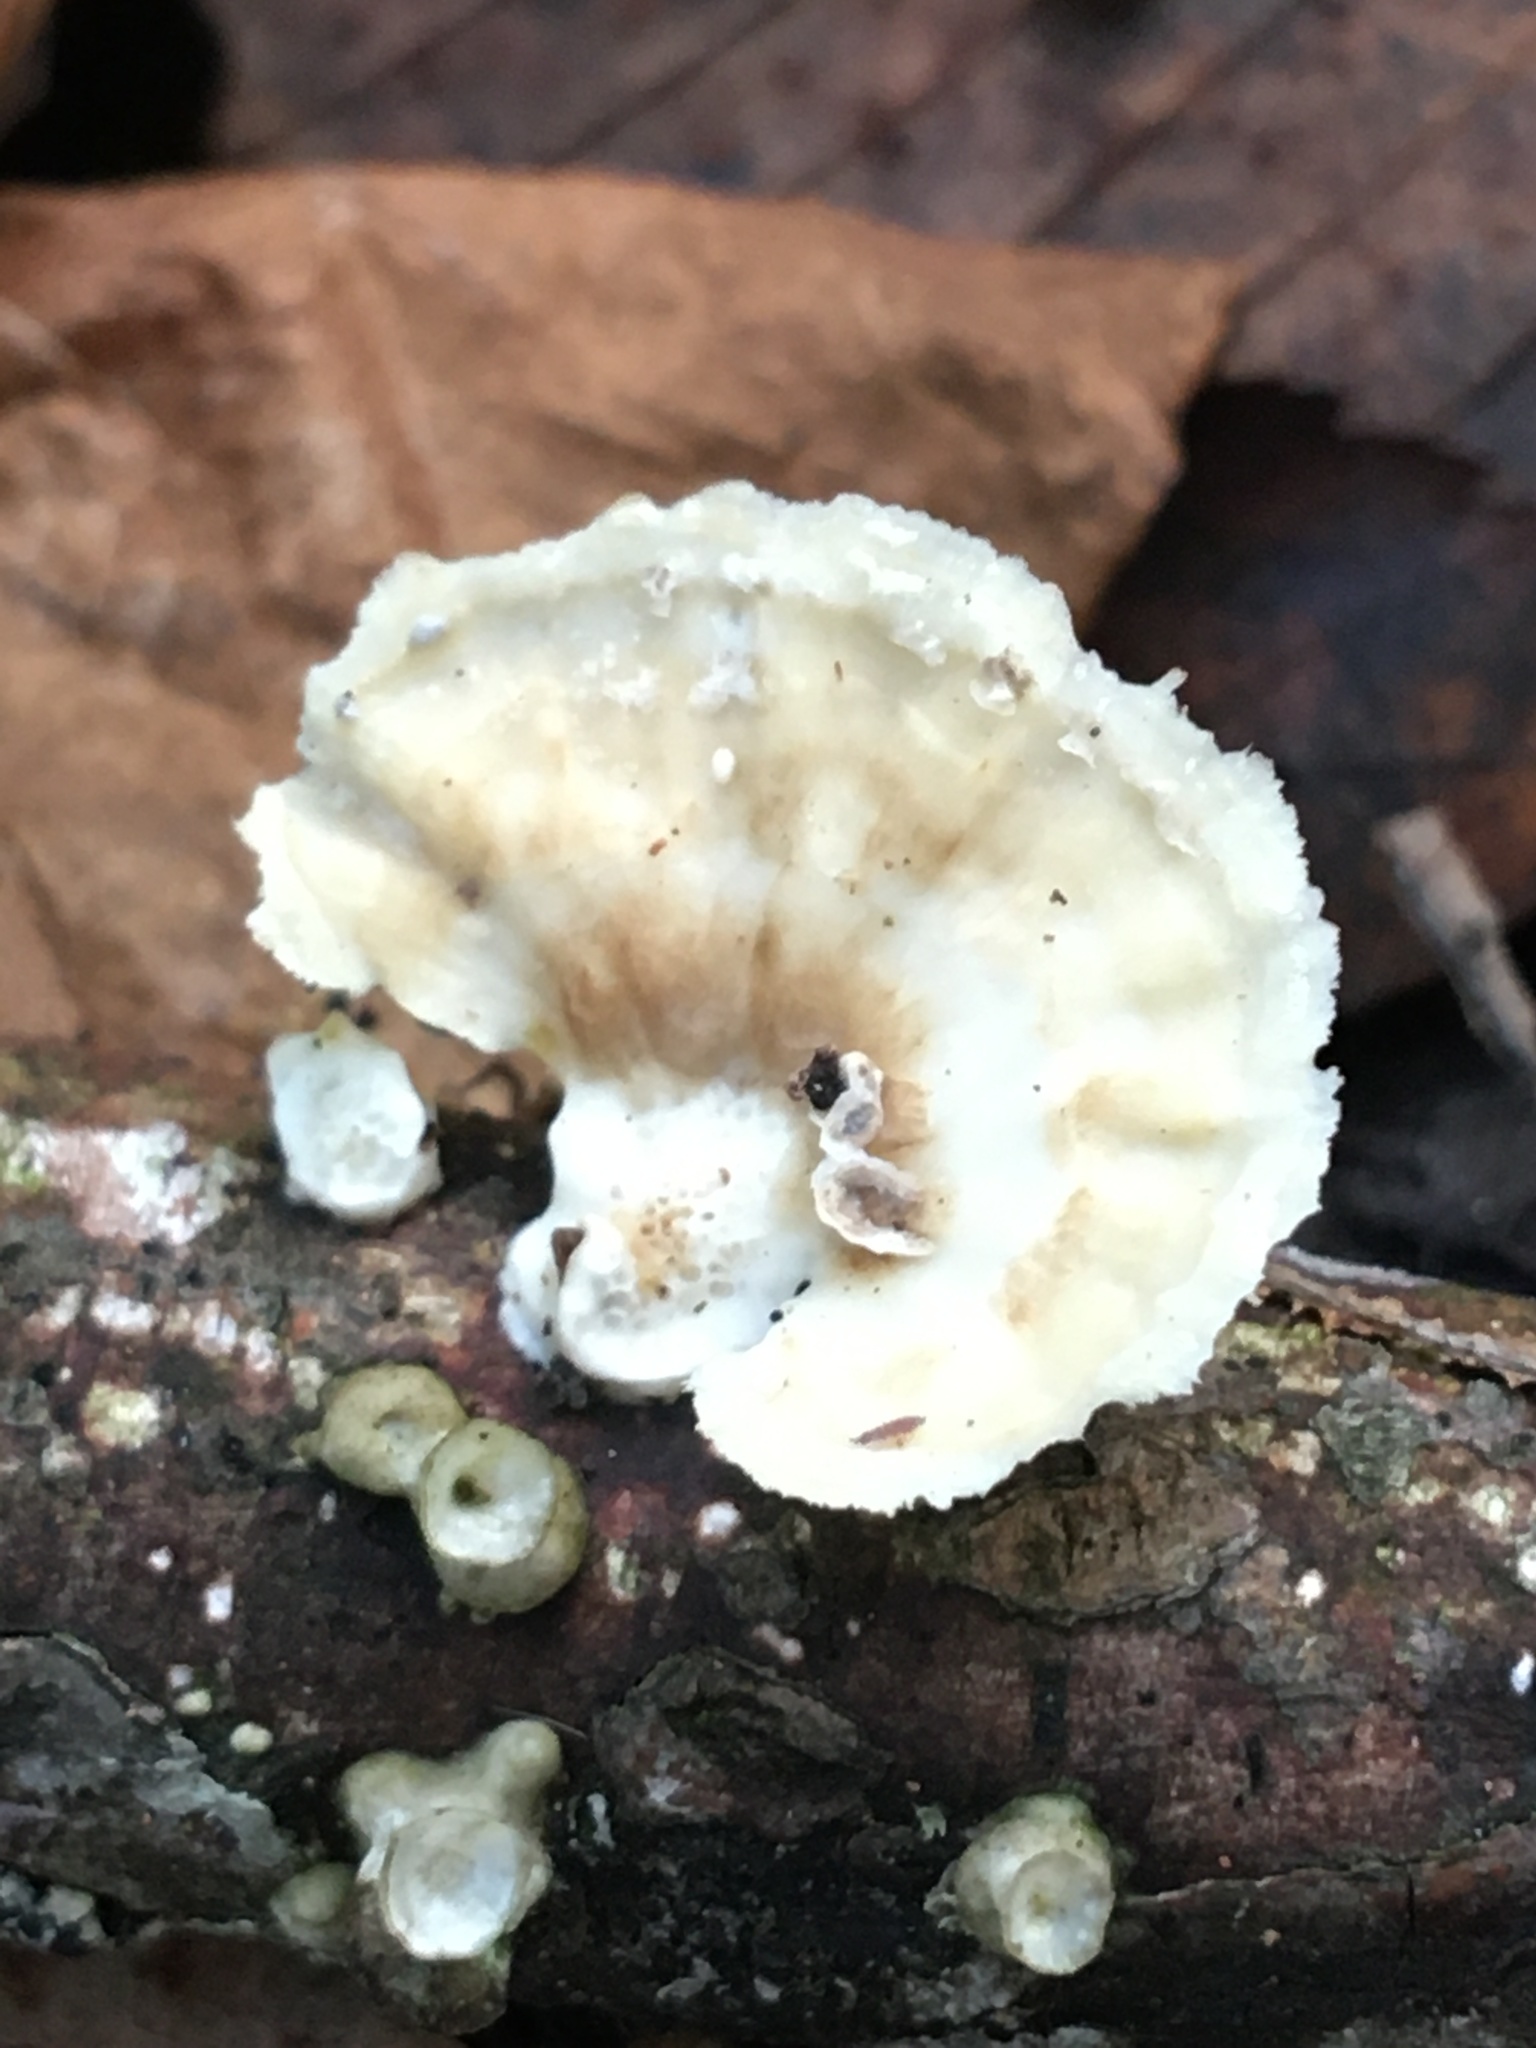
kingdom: Fungi
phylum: Basidiomycota
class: Agaricomycetes
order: Polyporales
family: Polyporaceae
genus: Poronidulus
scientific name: Poronidulus conchifer
